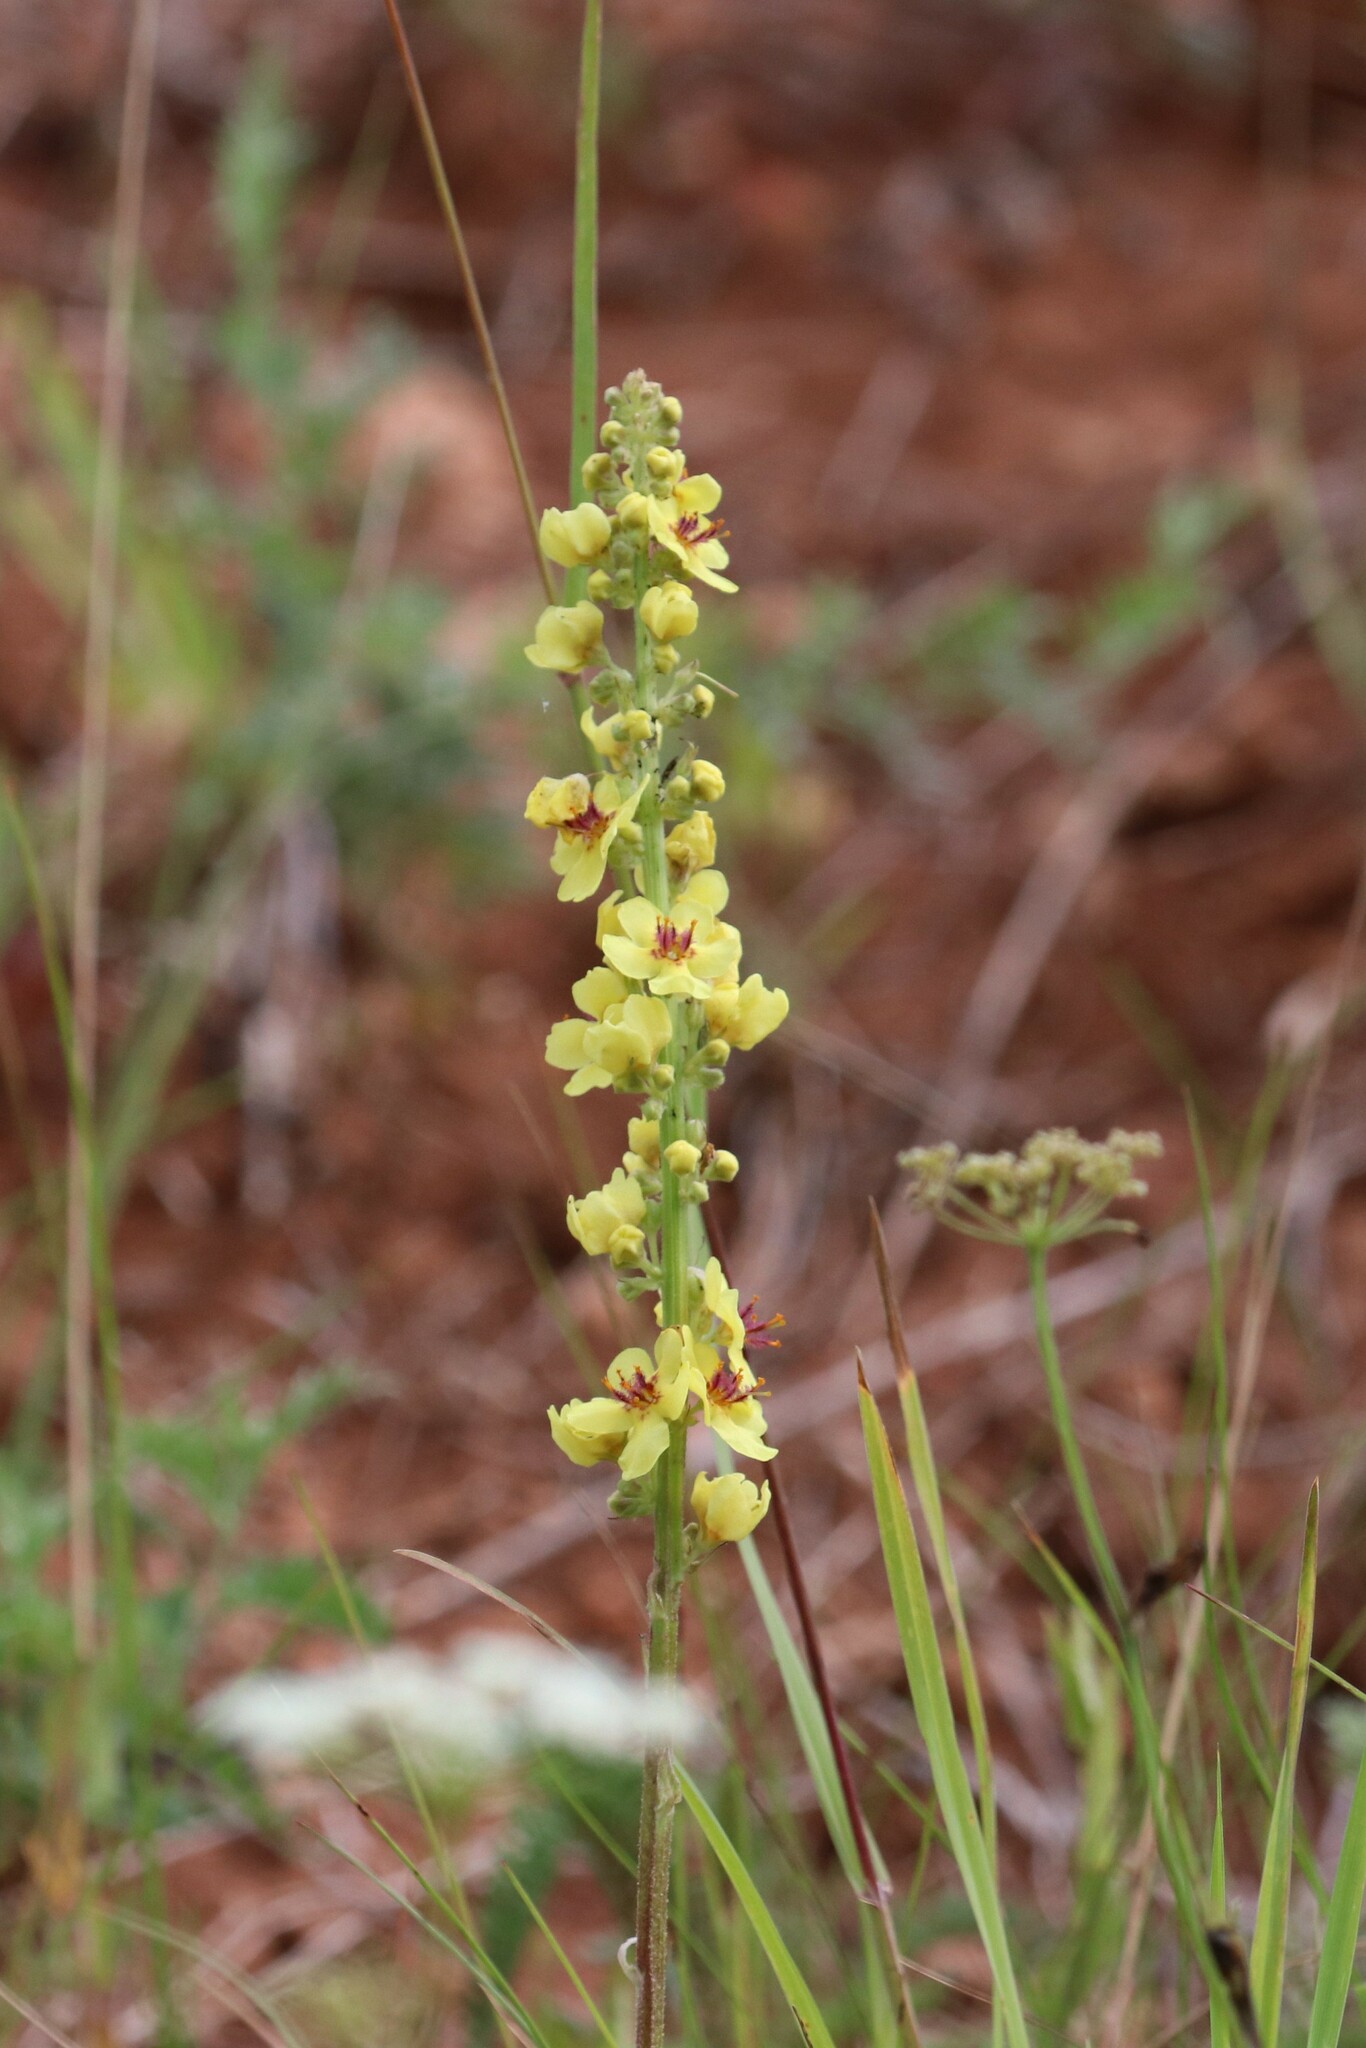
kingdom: Plantae
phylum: Tracheophyta
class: Magnoliopsida
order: Lamiales
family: Scrophulariaceae
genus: Verbascum
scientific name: Verbascum nigrum
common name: Dark mullein
